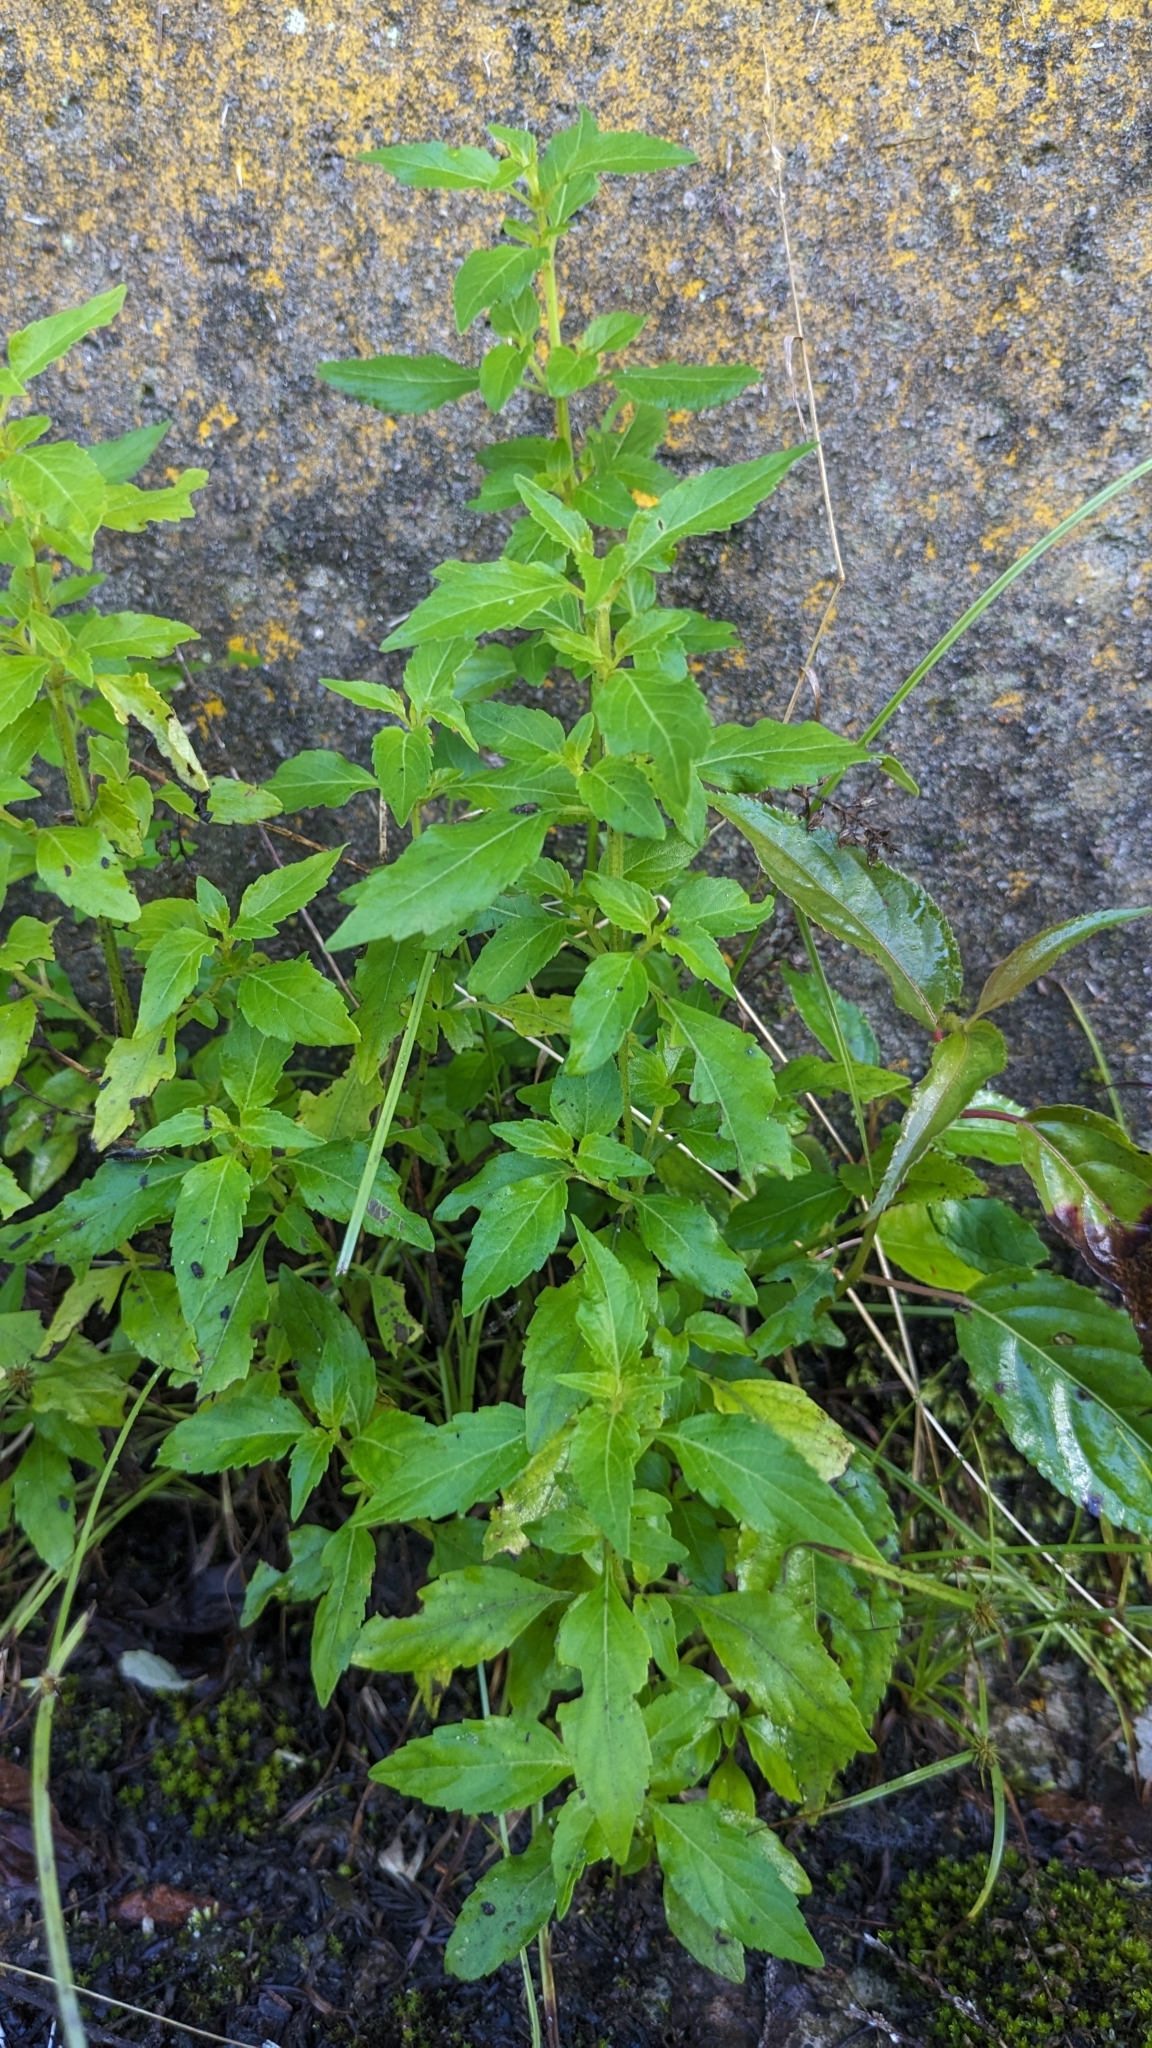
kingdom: Plantae
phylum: Tracheophyta
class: Magnoliopsida
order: Lamiales
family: Lamiaceae
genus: Mosla
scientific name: Mosla scabra
